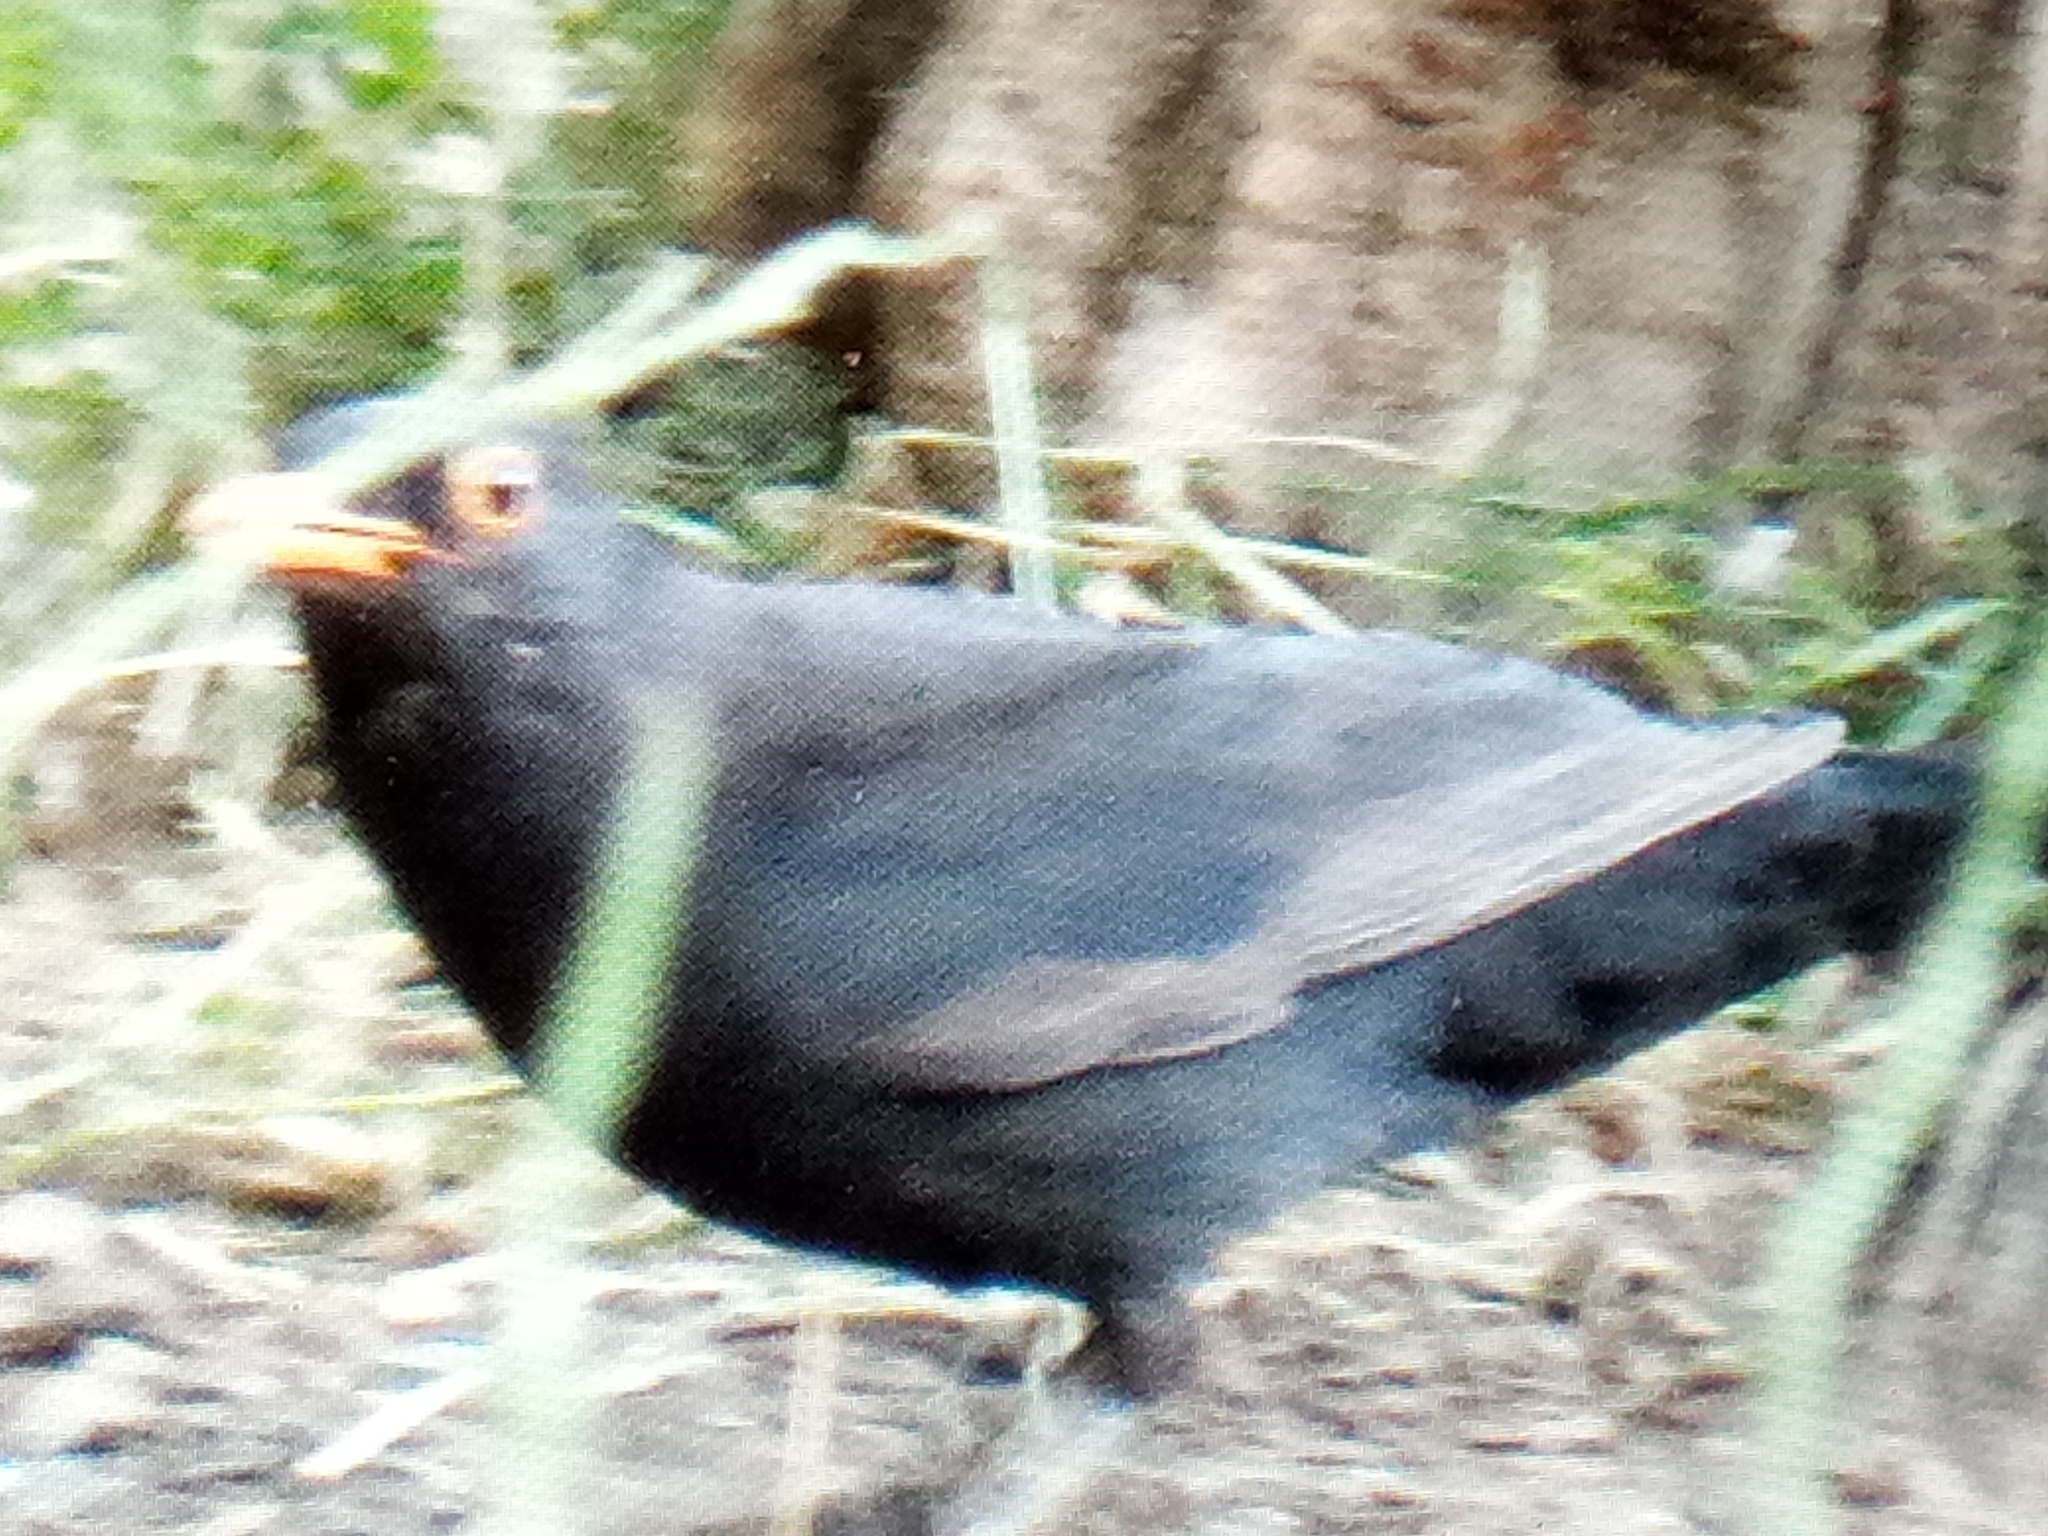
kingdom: Animalia
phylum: Chordata
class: Aves
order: Passeriformes
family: Turdidae
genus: Turdus
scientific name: Turdus merula
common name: Common blackbird
